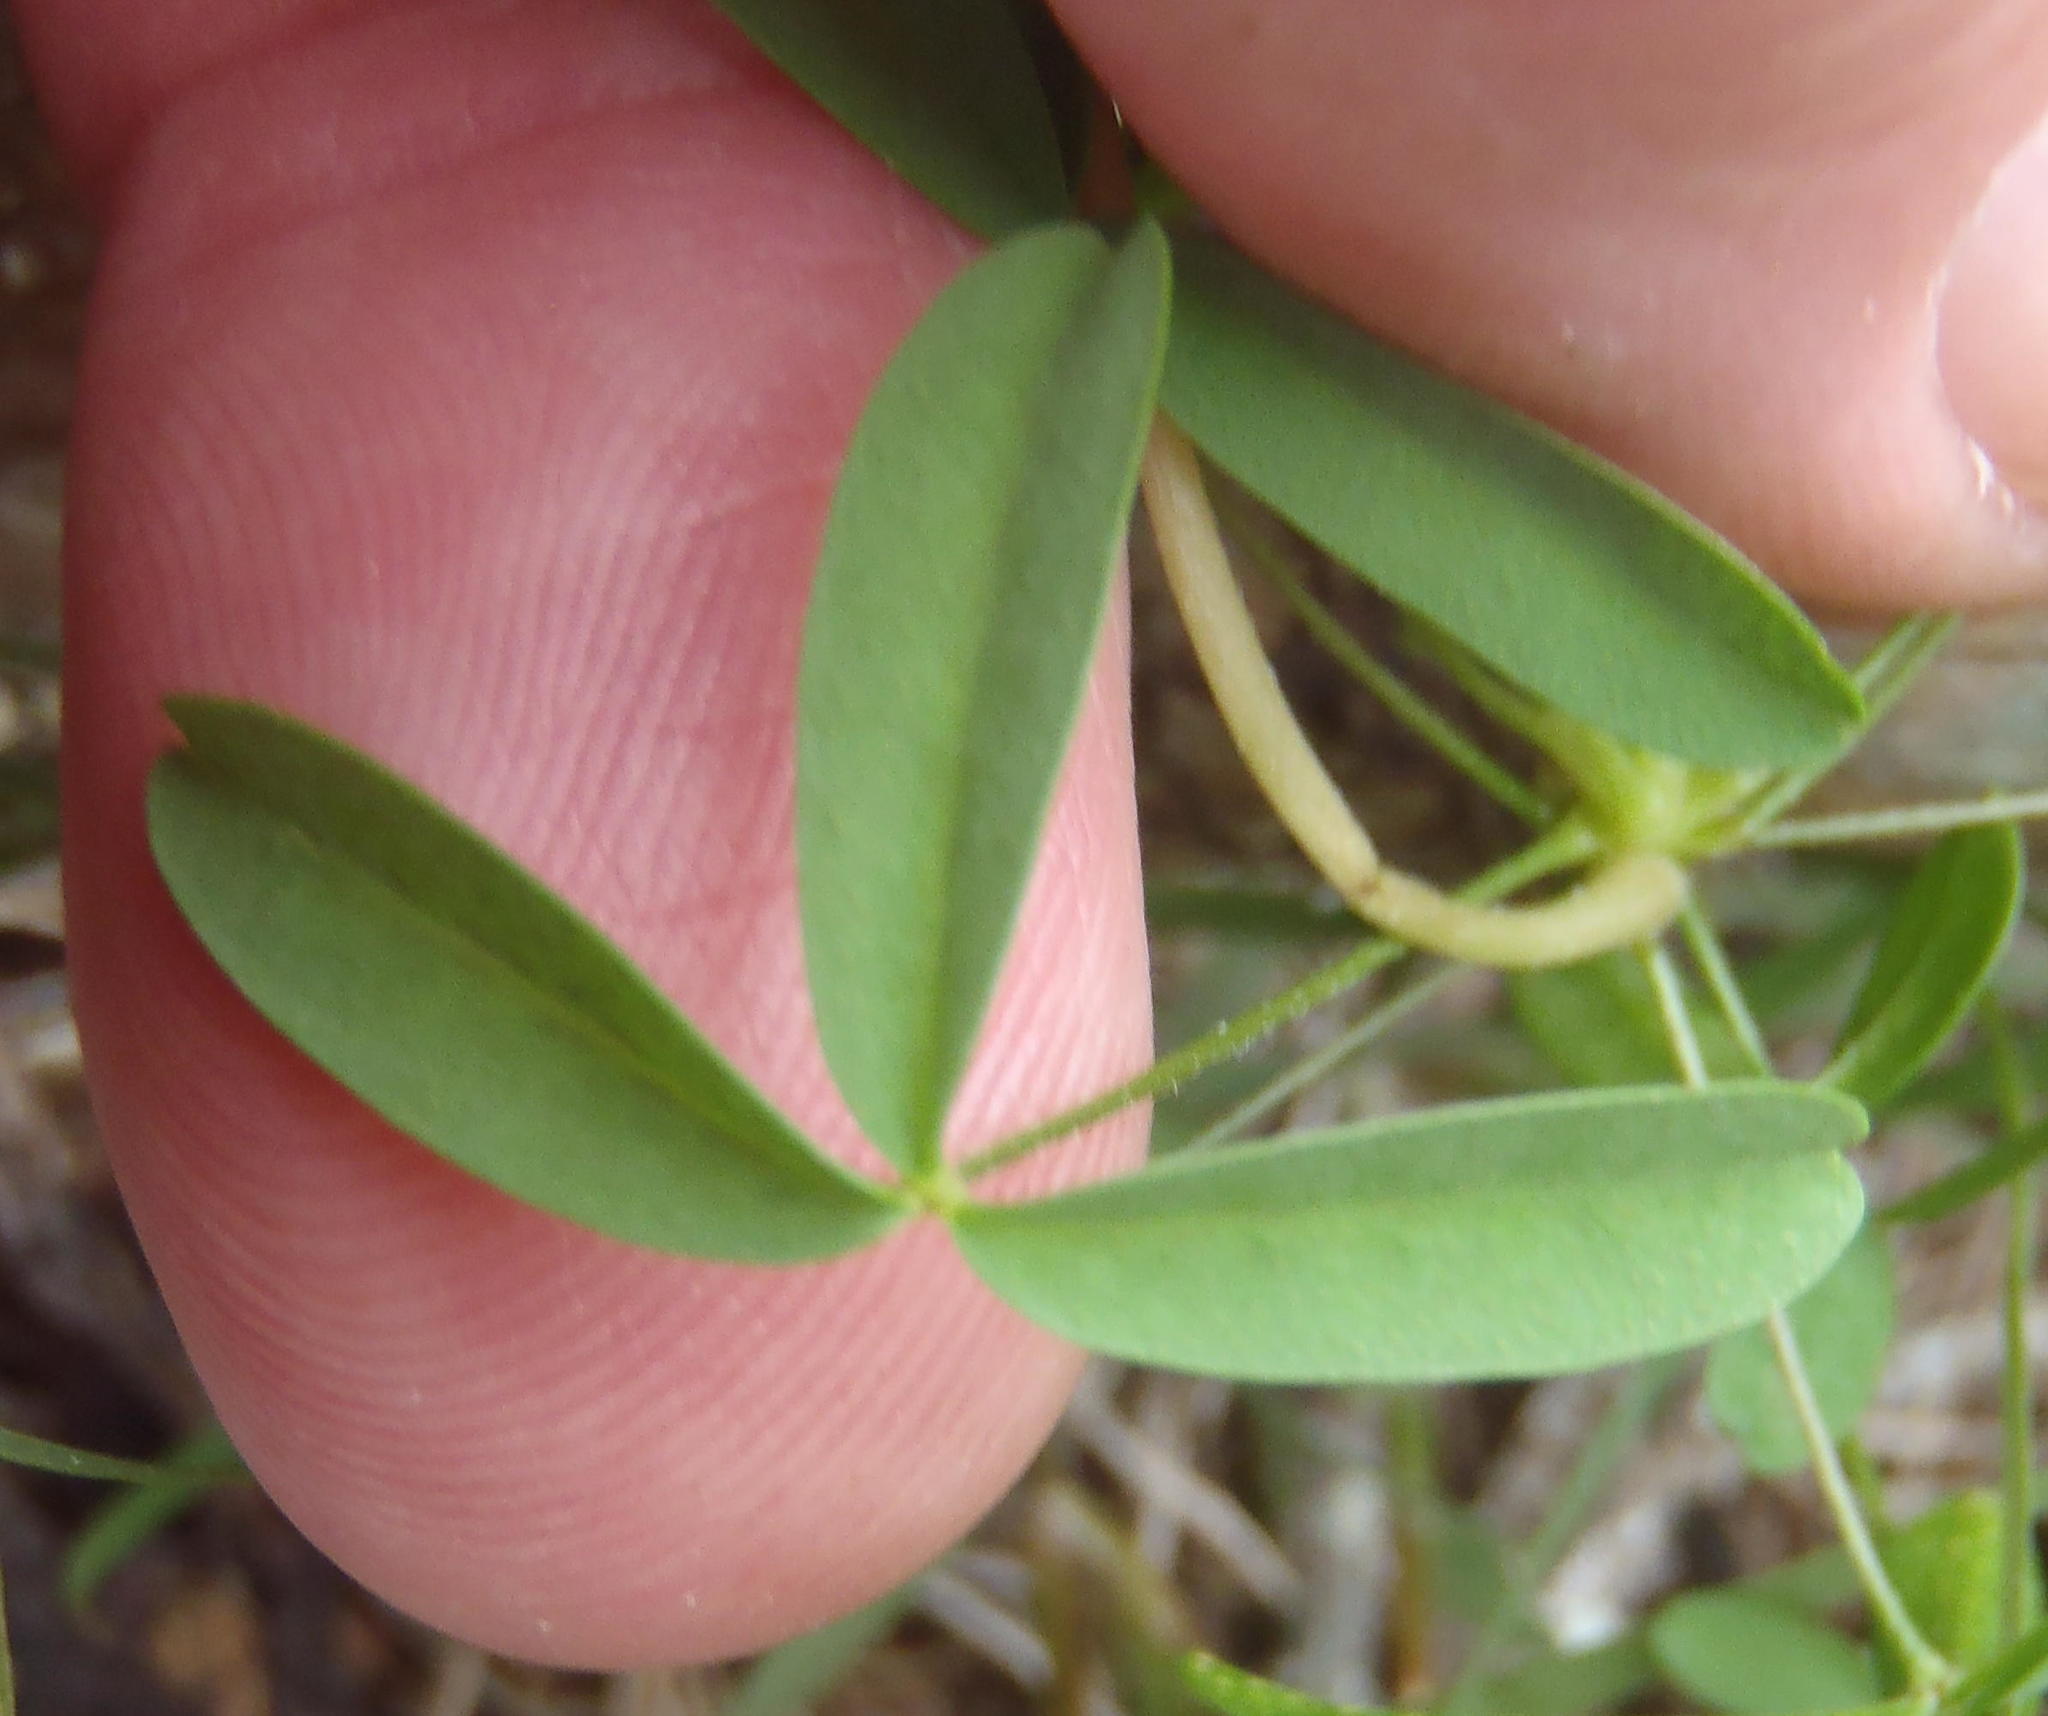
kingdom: Plantae
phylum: Tracheophyta
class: Magnoliopsida
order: Oxalidales
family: Oxalidaceae
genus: Oxalis
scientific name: Oxalis ciliaris
